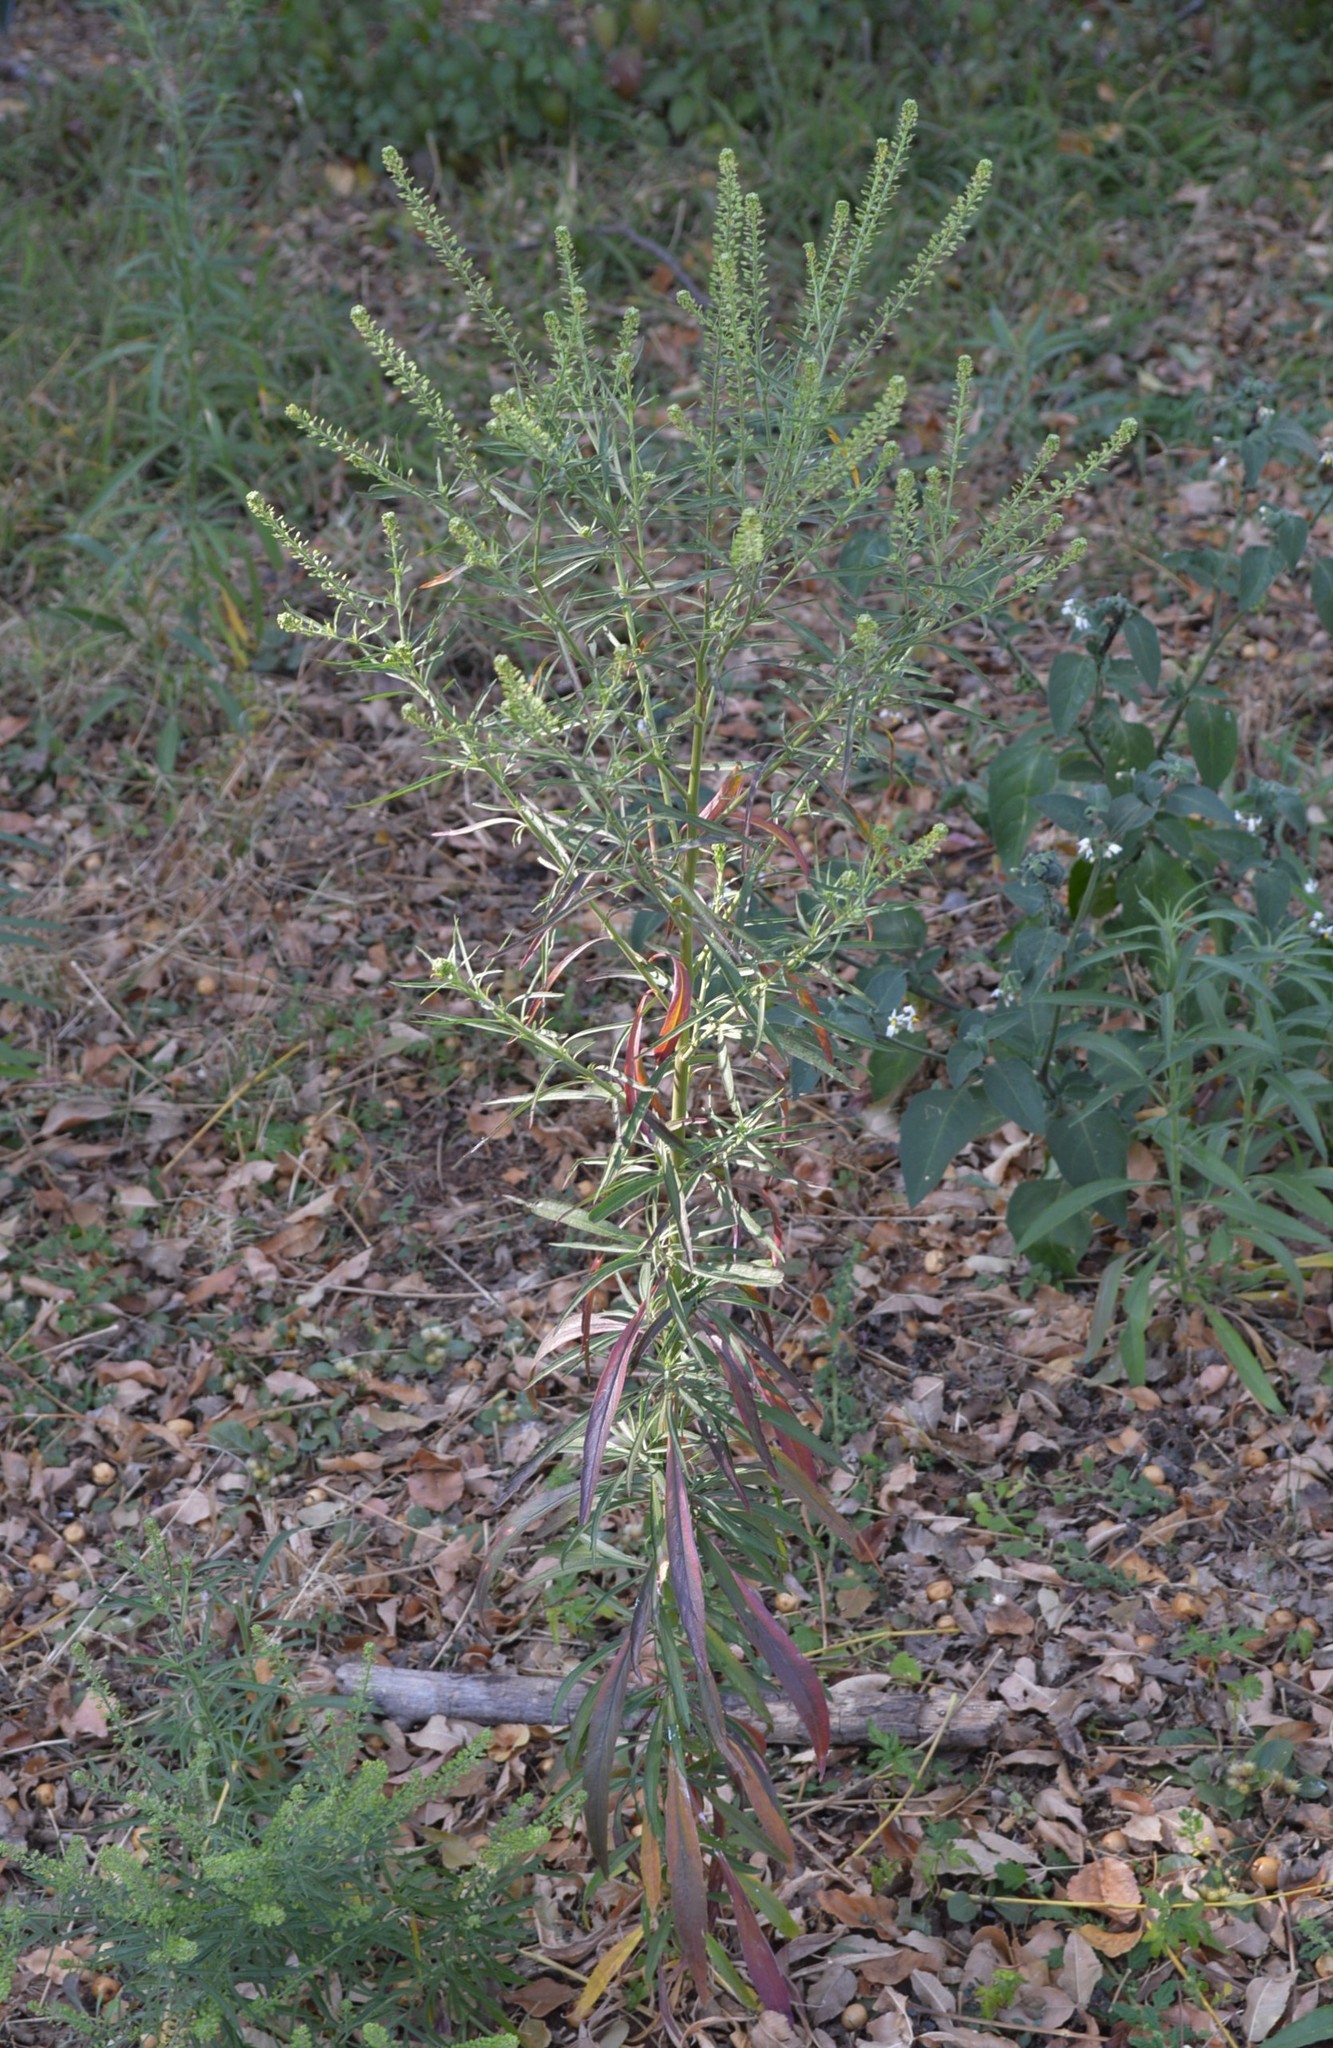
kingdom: Plantae
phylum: Tracheophyta
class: Magnoliopsida
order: Brassicales
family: Brassicaceae
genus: Lepidium
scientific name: Lepidium africanum
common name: African pepperwort
